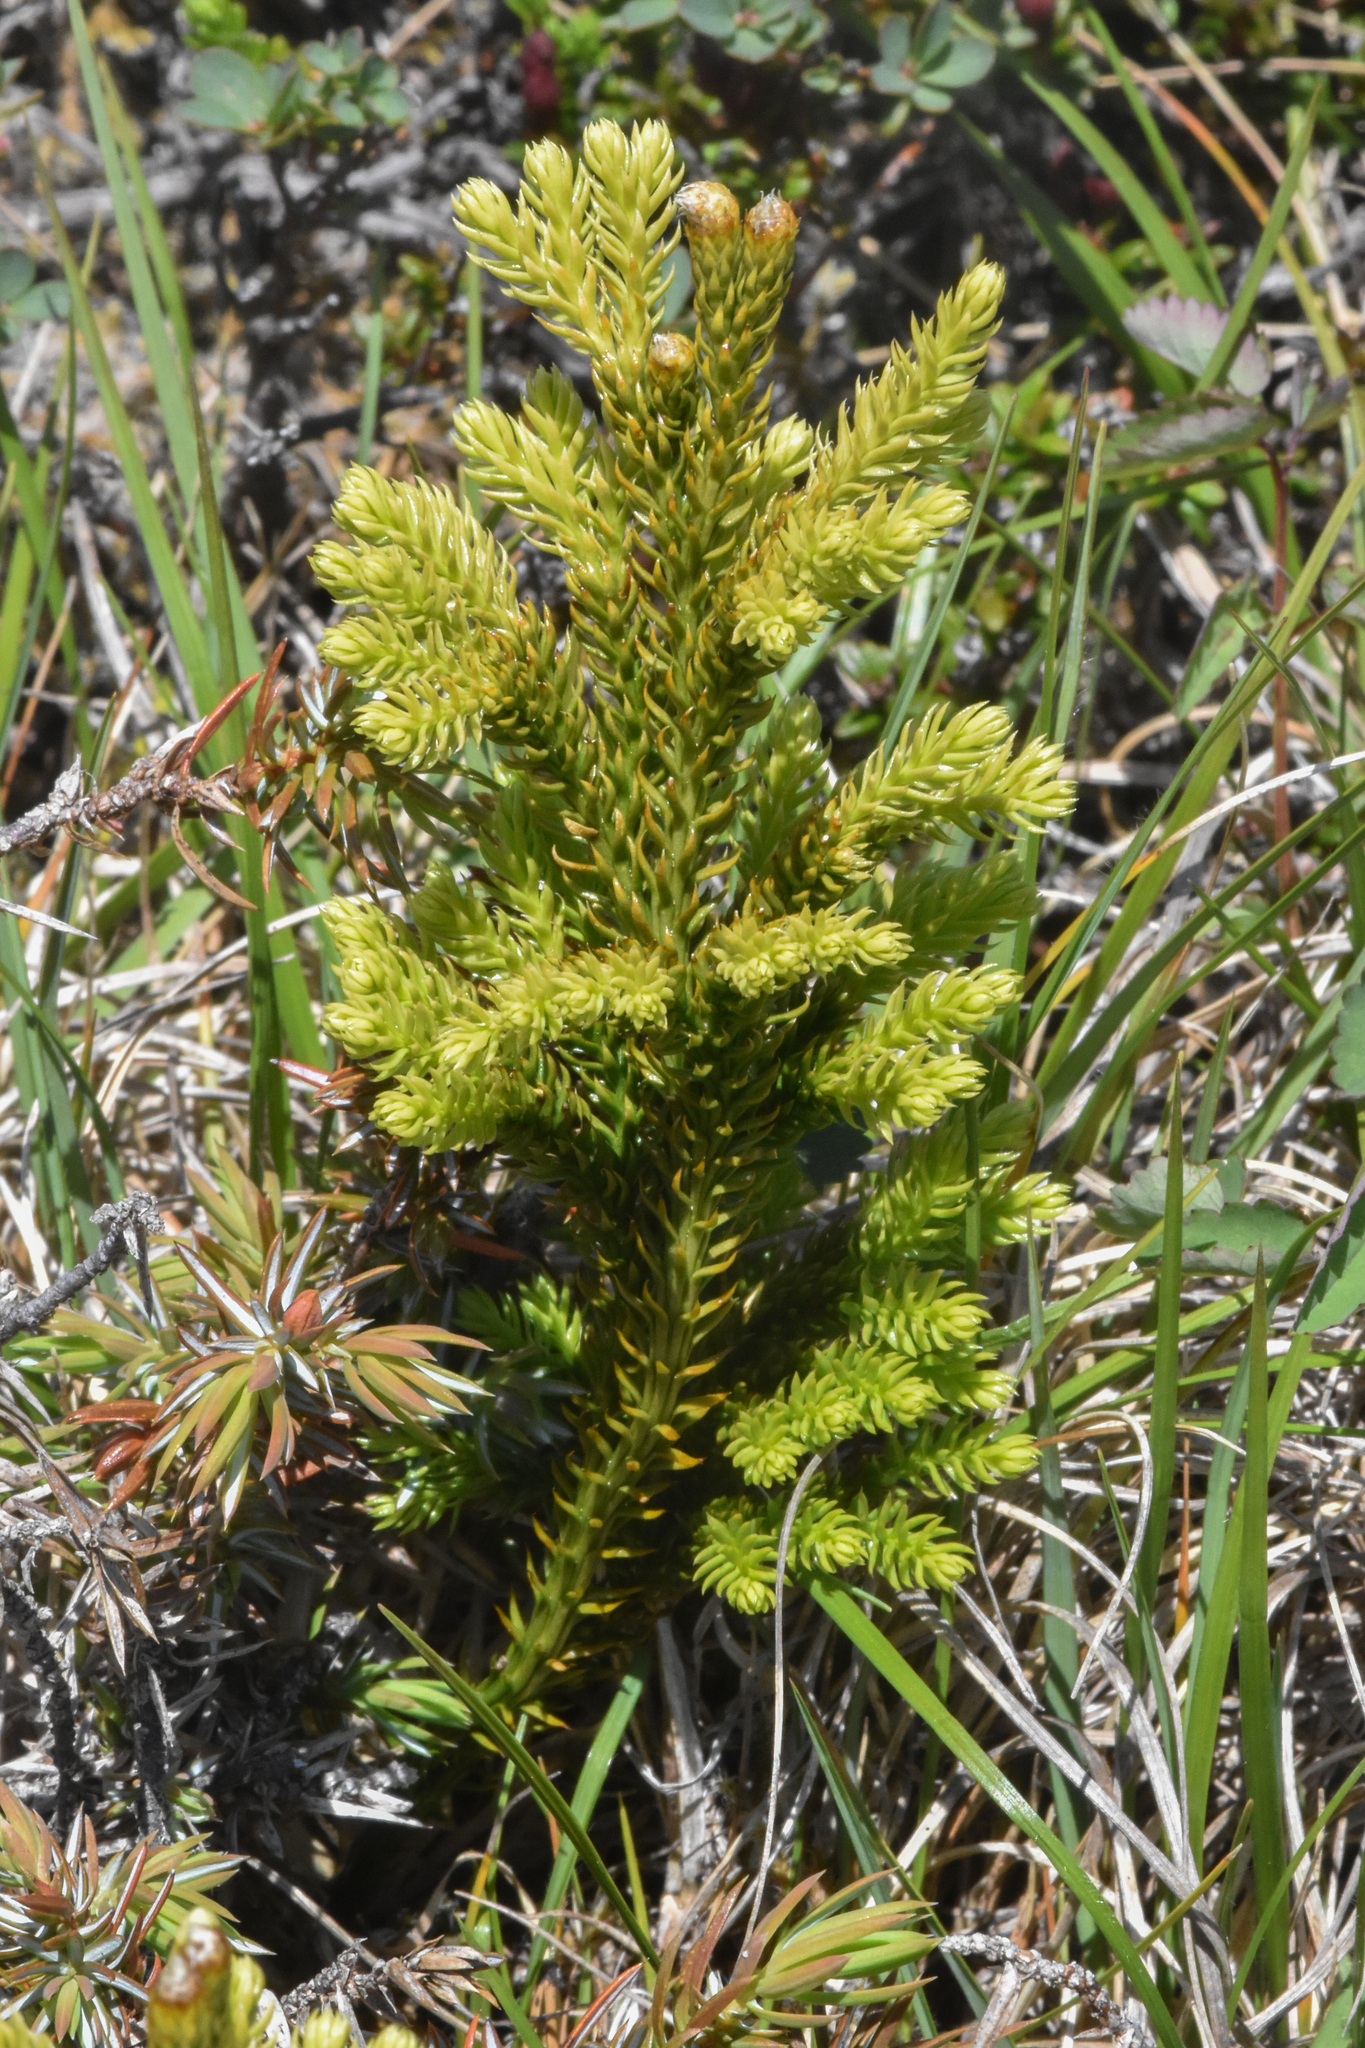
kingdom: Plantae
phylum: Tracheophyta
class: Lycopodiopsida
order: Lycopodiales
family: Lycopodiaceae
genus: Dendrolycopodium
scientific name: Dendrolycopodium dendroideum
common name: Northern tree-clubmoss
